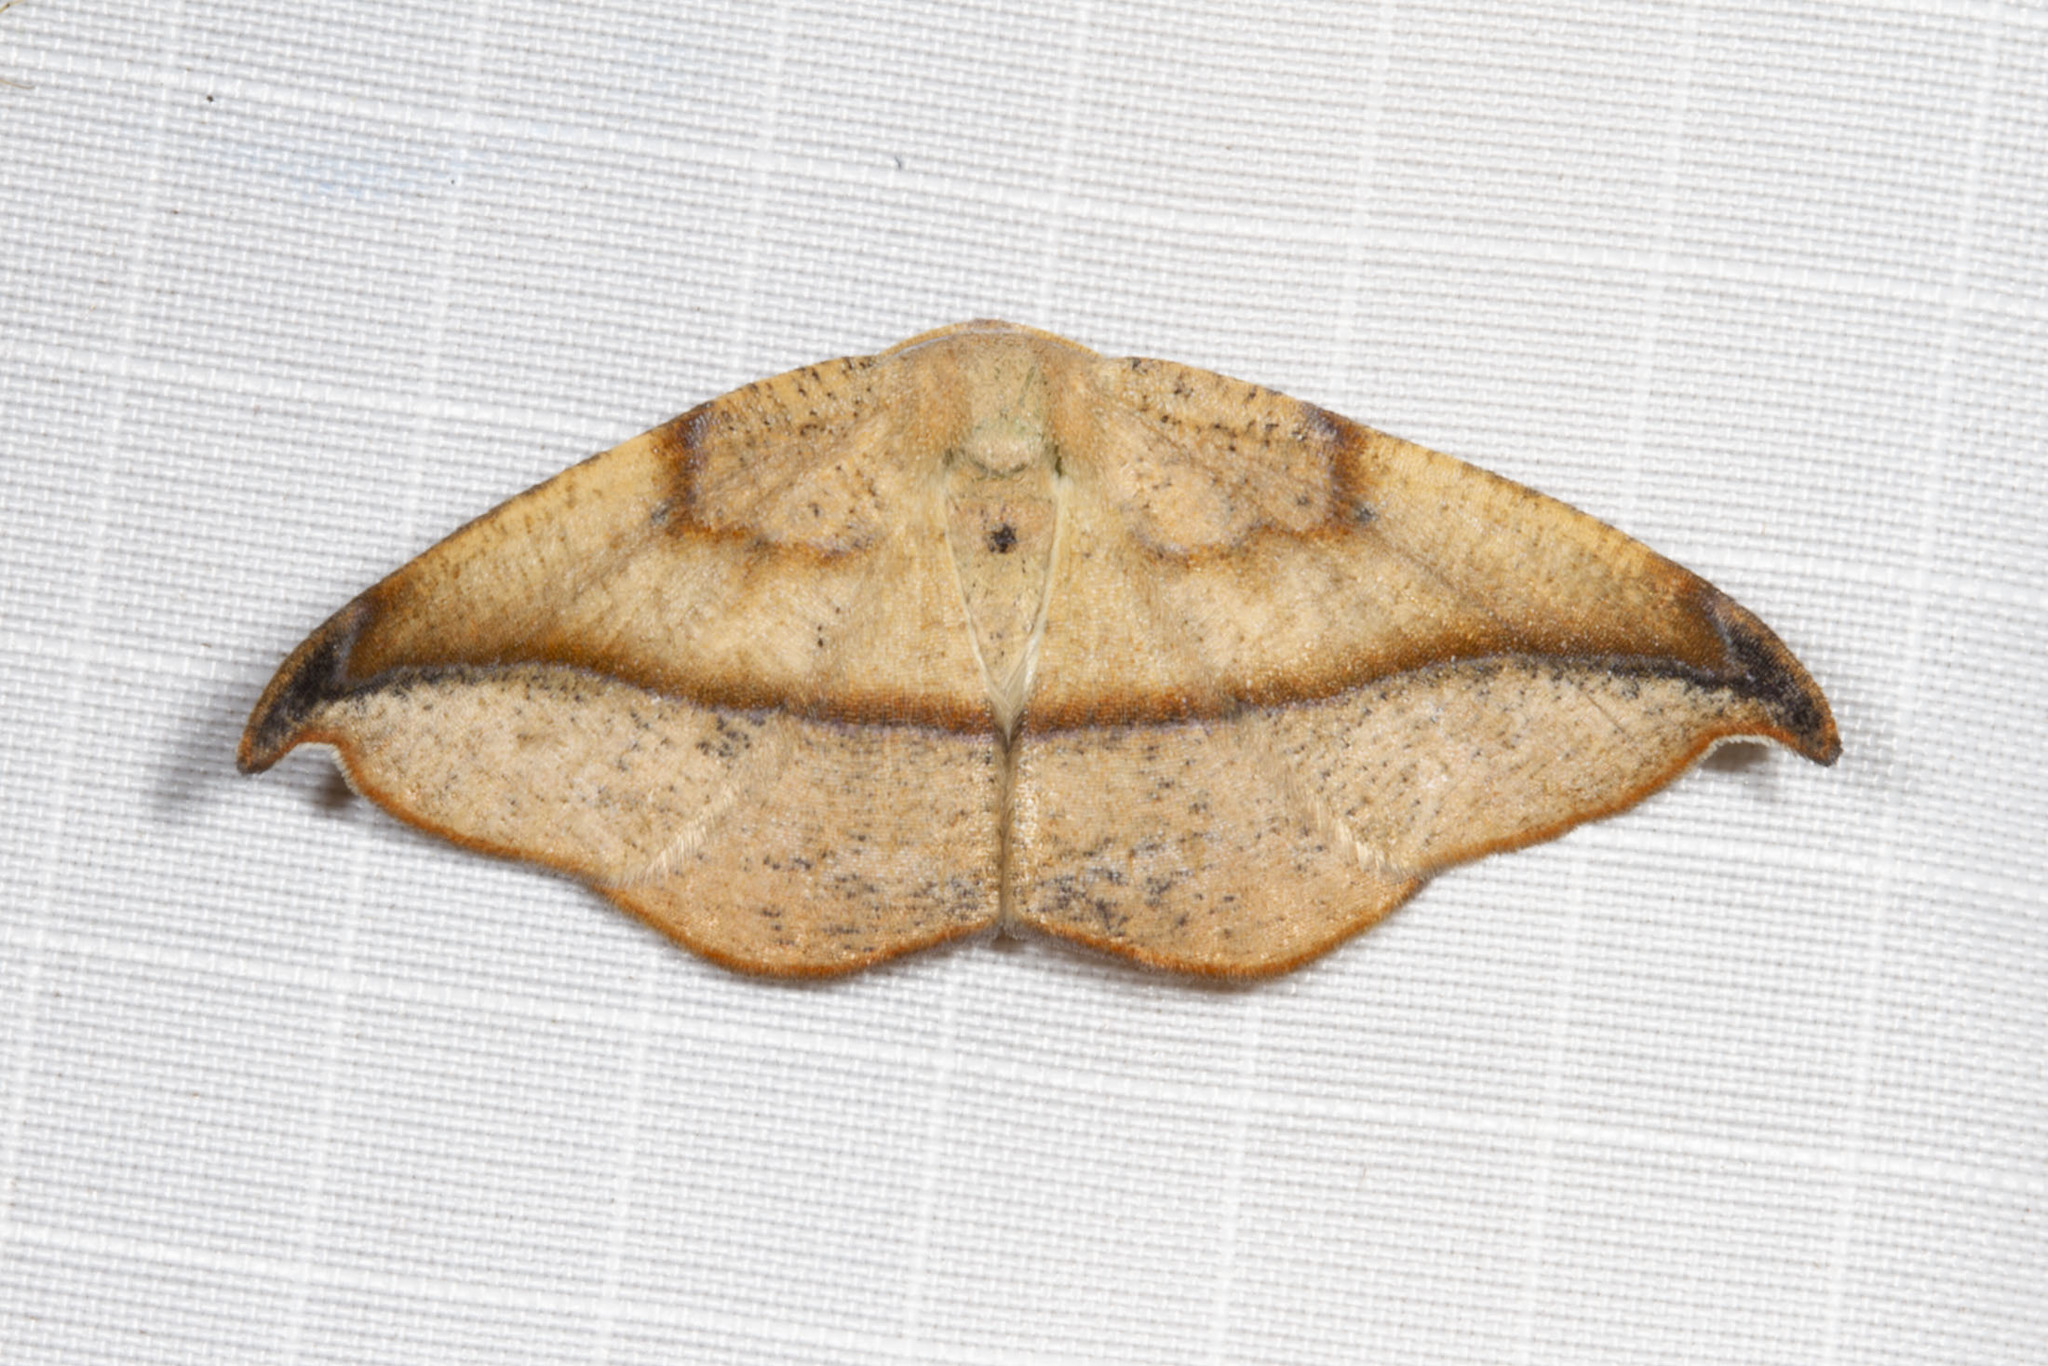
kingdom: Animalia
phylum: Arthropoda
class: Insecta
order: Lepidoptera
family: Geometridae
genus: Patalene
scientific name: Patalene olyzonaria
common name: Juniper geometer moth
